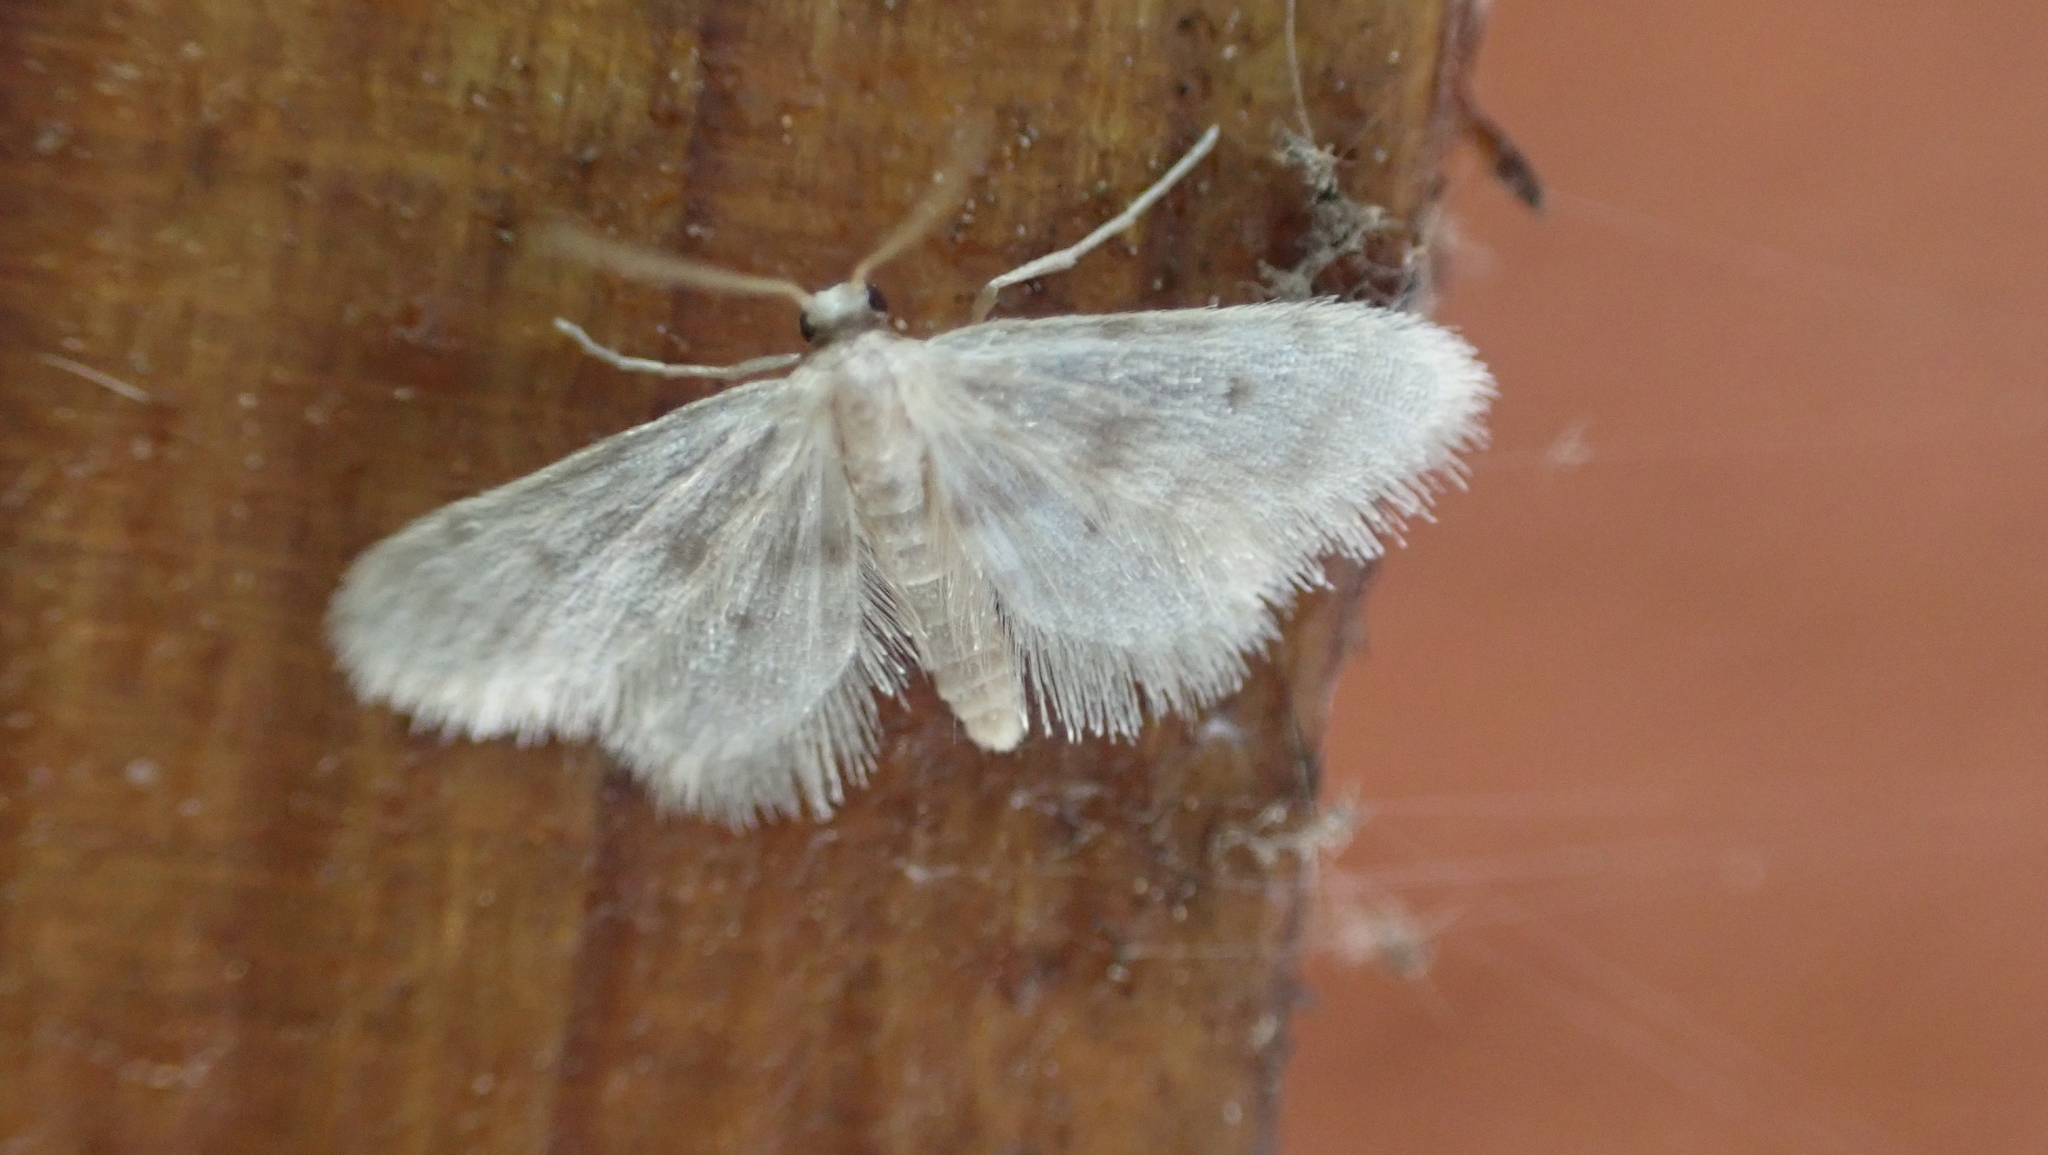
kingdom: Animalia
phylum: Arthropoda
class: Insecta
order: Lepidoptera
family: Geometridae
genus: Idaea
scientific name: Idaea bonifata
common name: Fortunate wave
